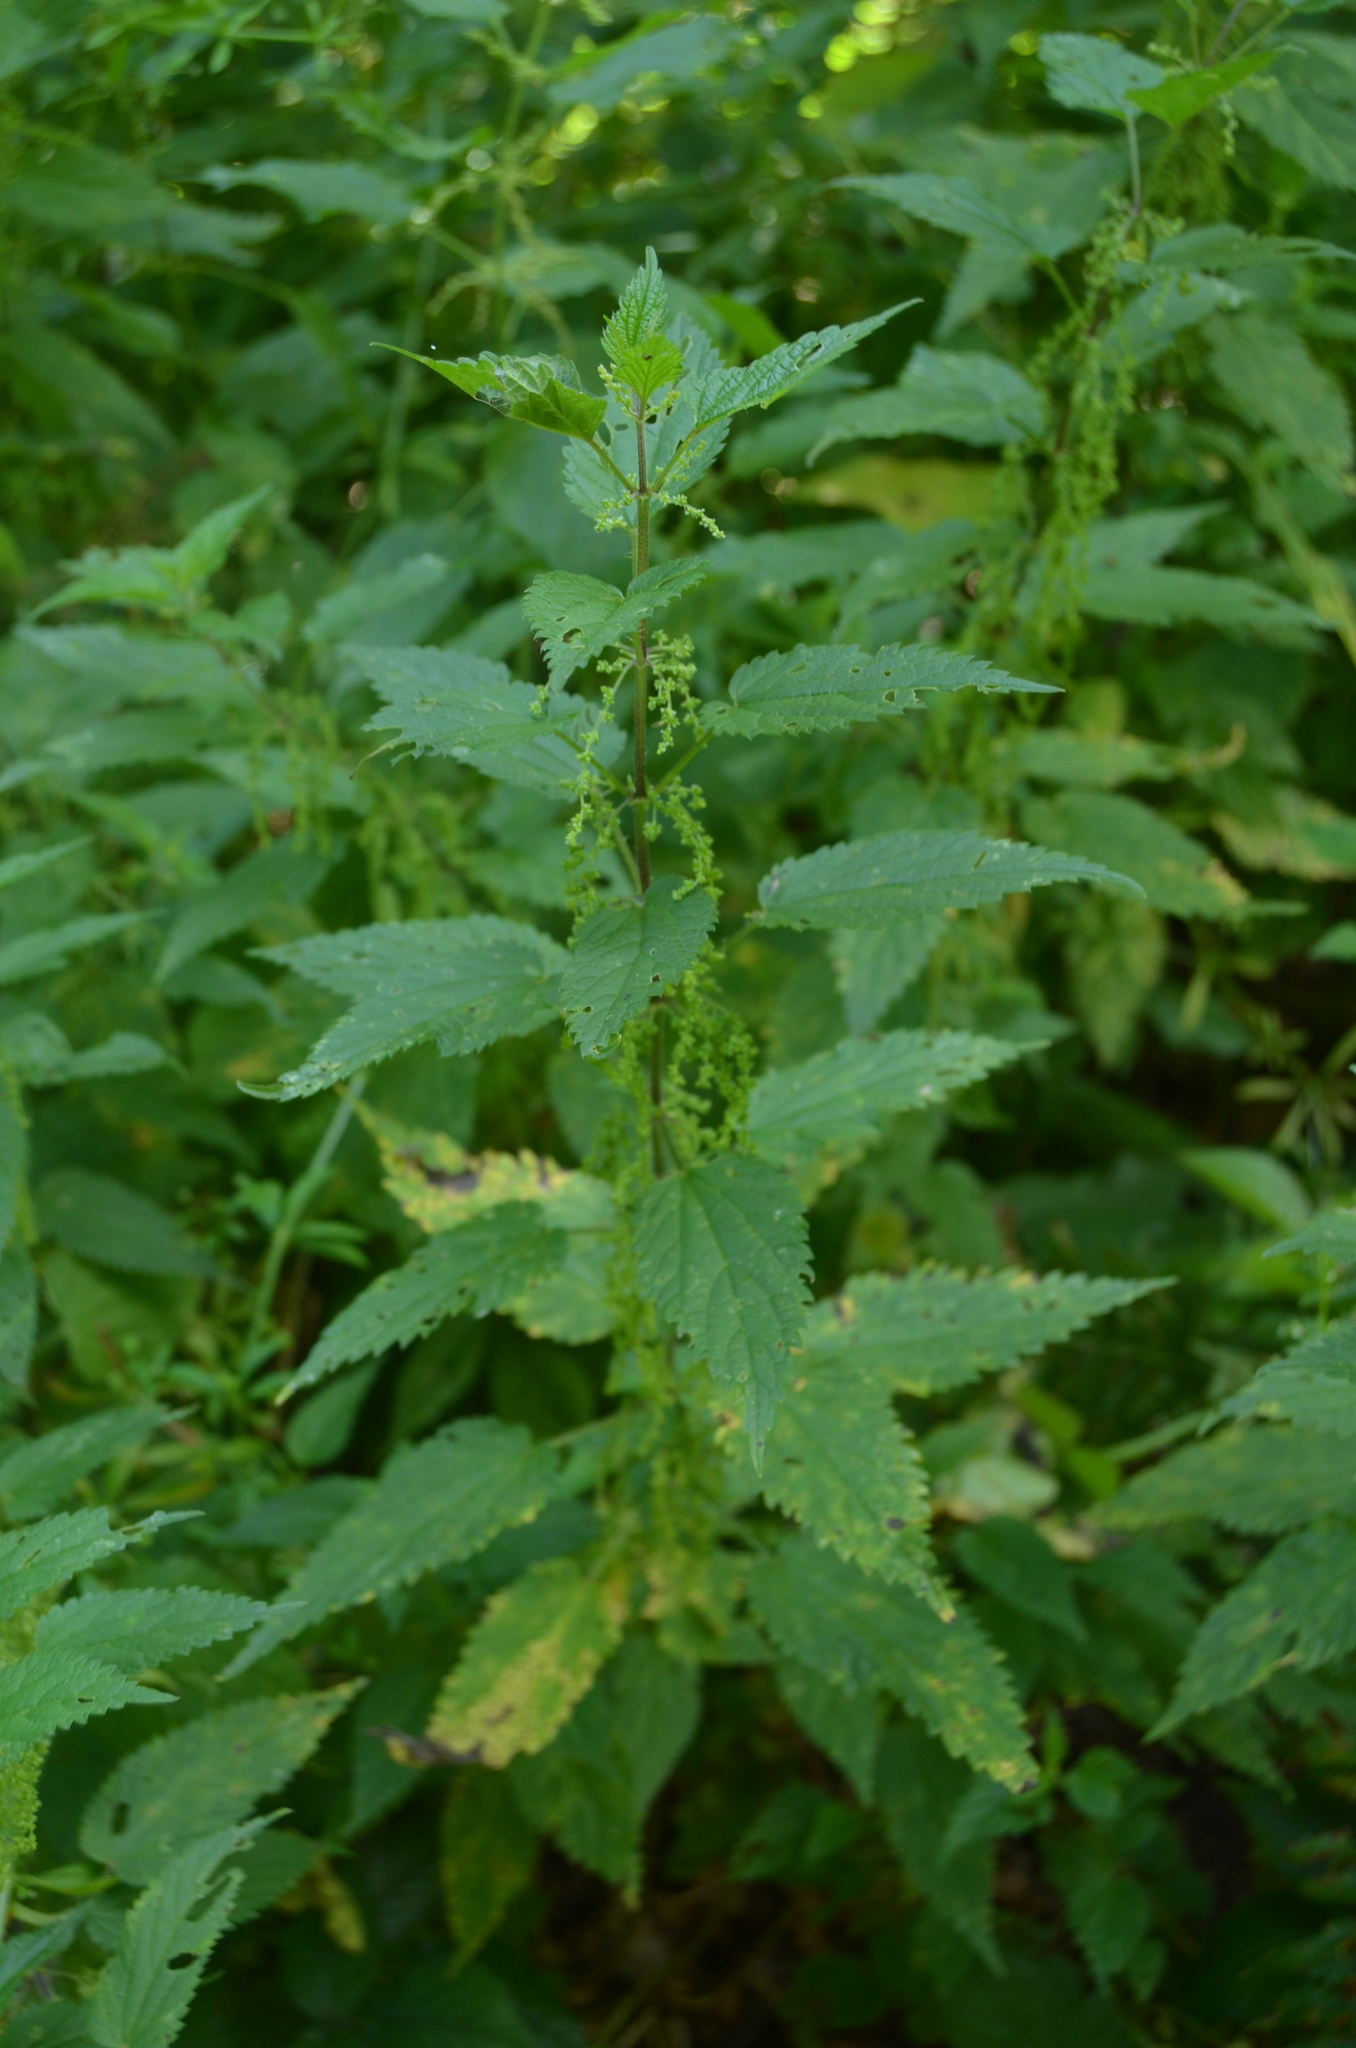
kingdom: Plantae
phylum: Tracheophyta
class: Magnoliopsida
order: Rosales
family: Urticaceae
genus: Urtica
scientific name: Urtica dioica
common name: Common nettle
